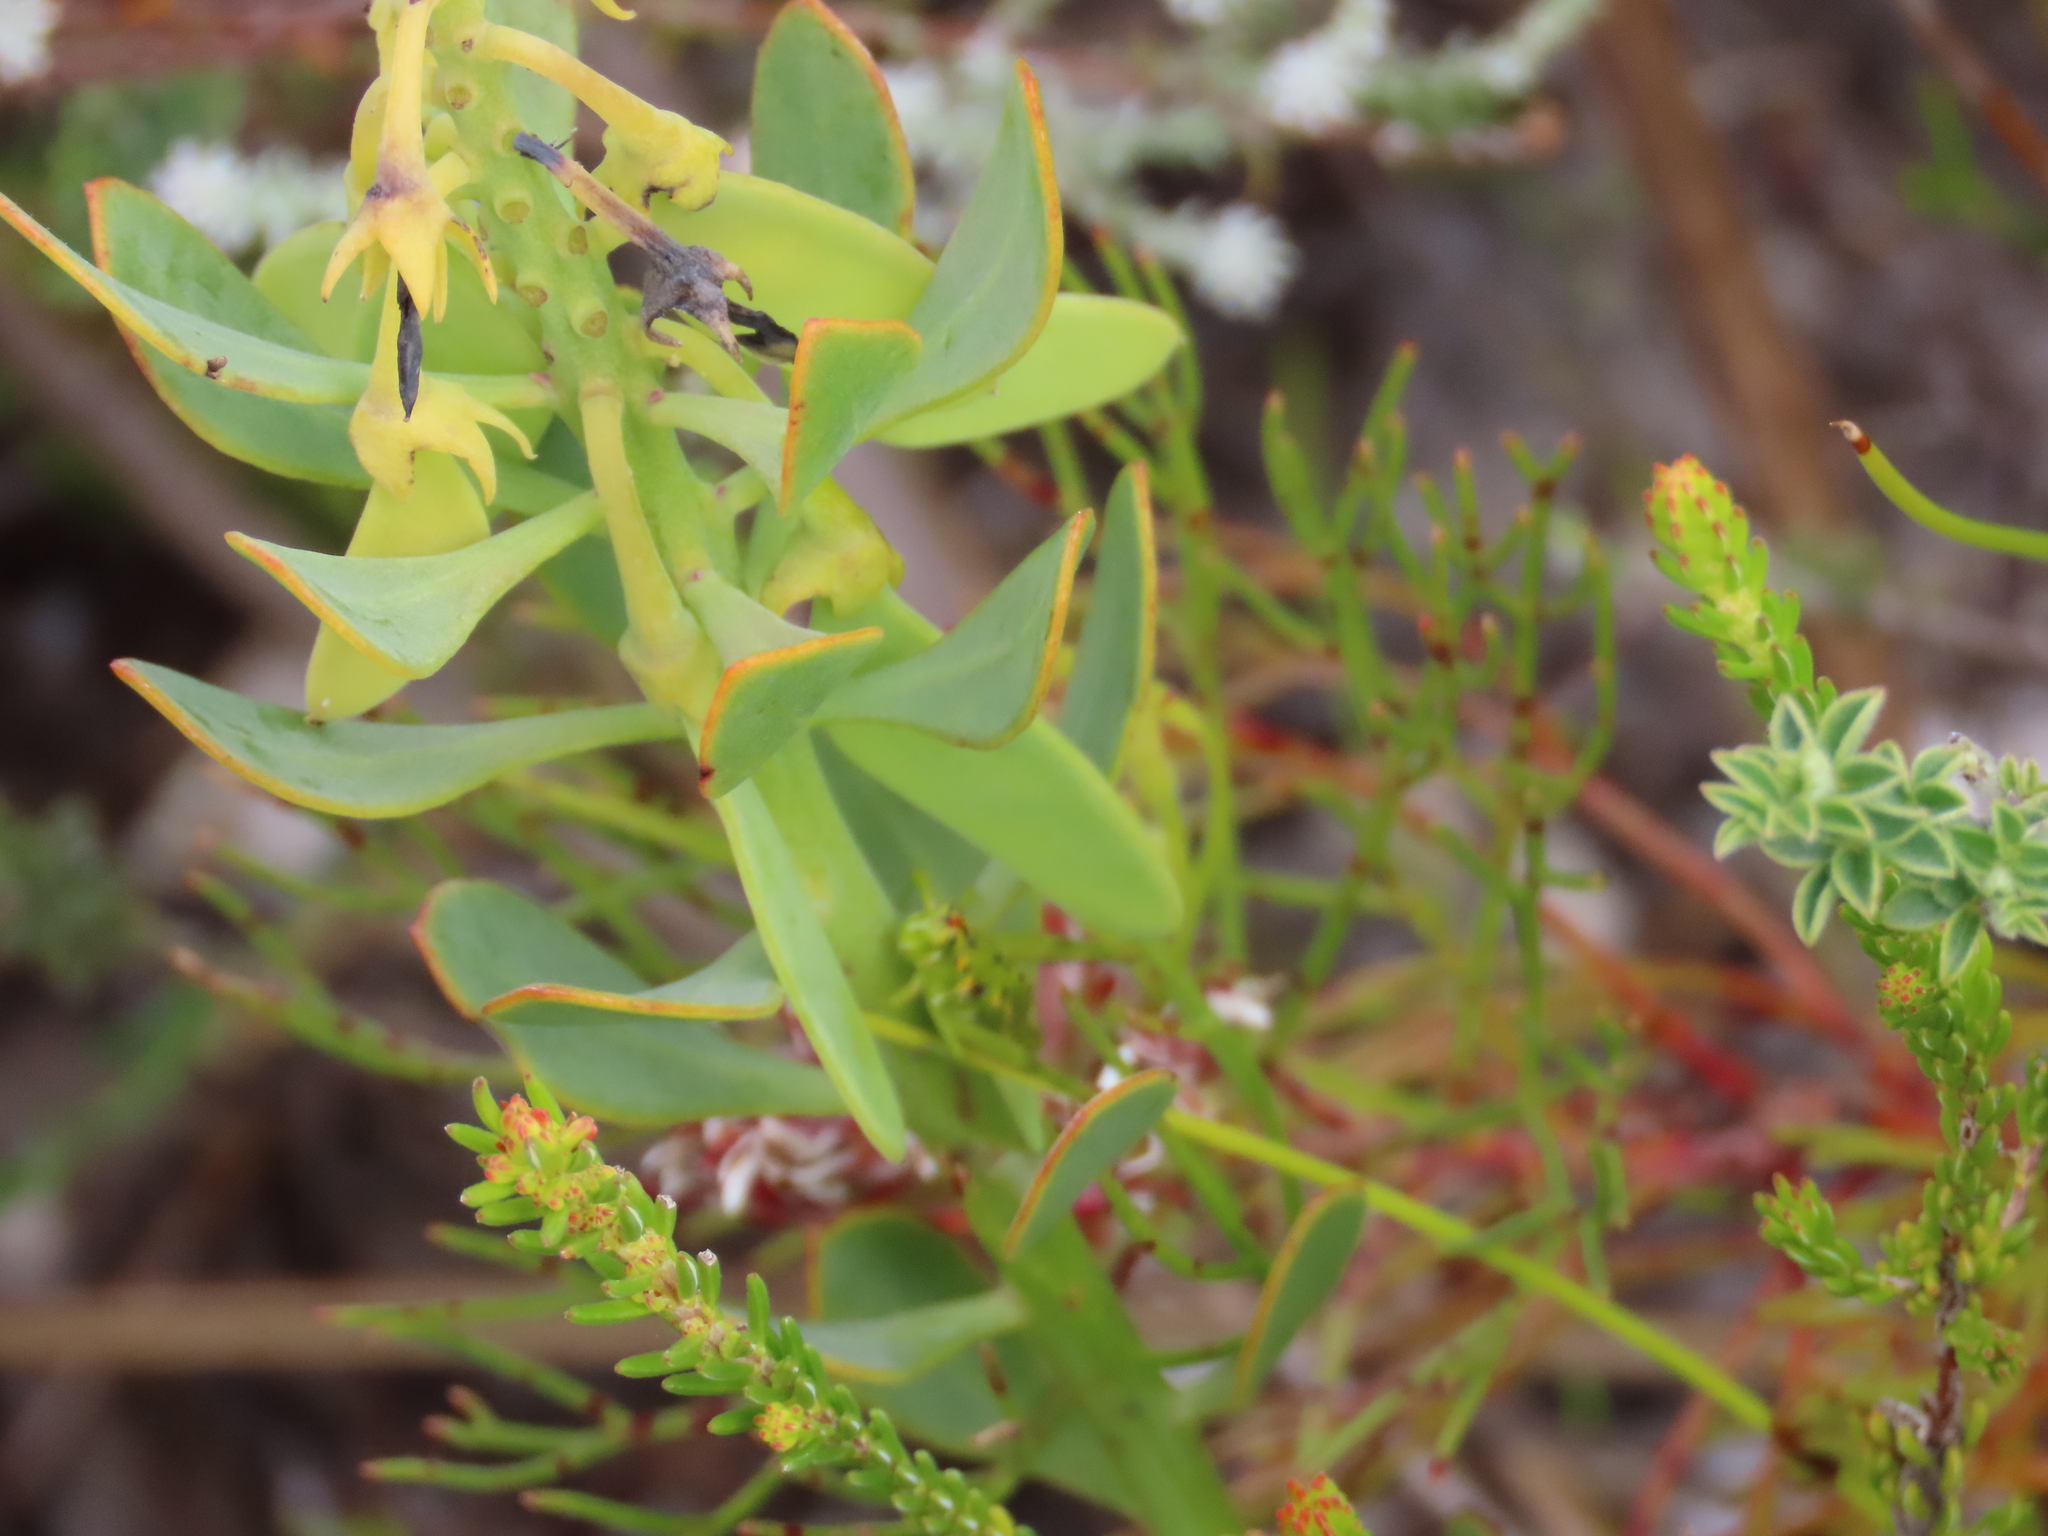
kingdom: Plantae
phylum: Tracheophyta
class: Magnoliopsida
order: Fabales
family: Fabaceae
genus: Rafnia
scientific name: Rafnia capensis
